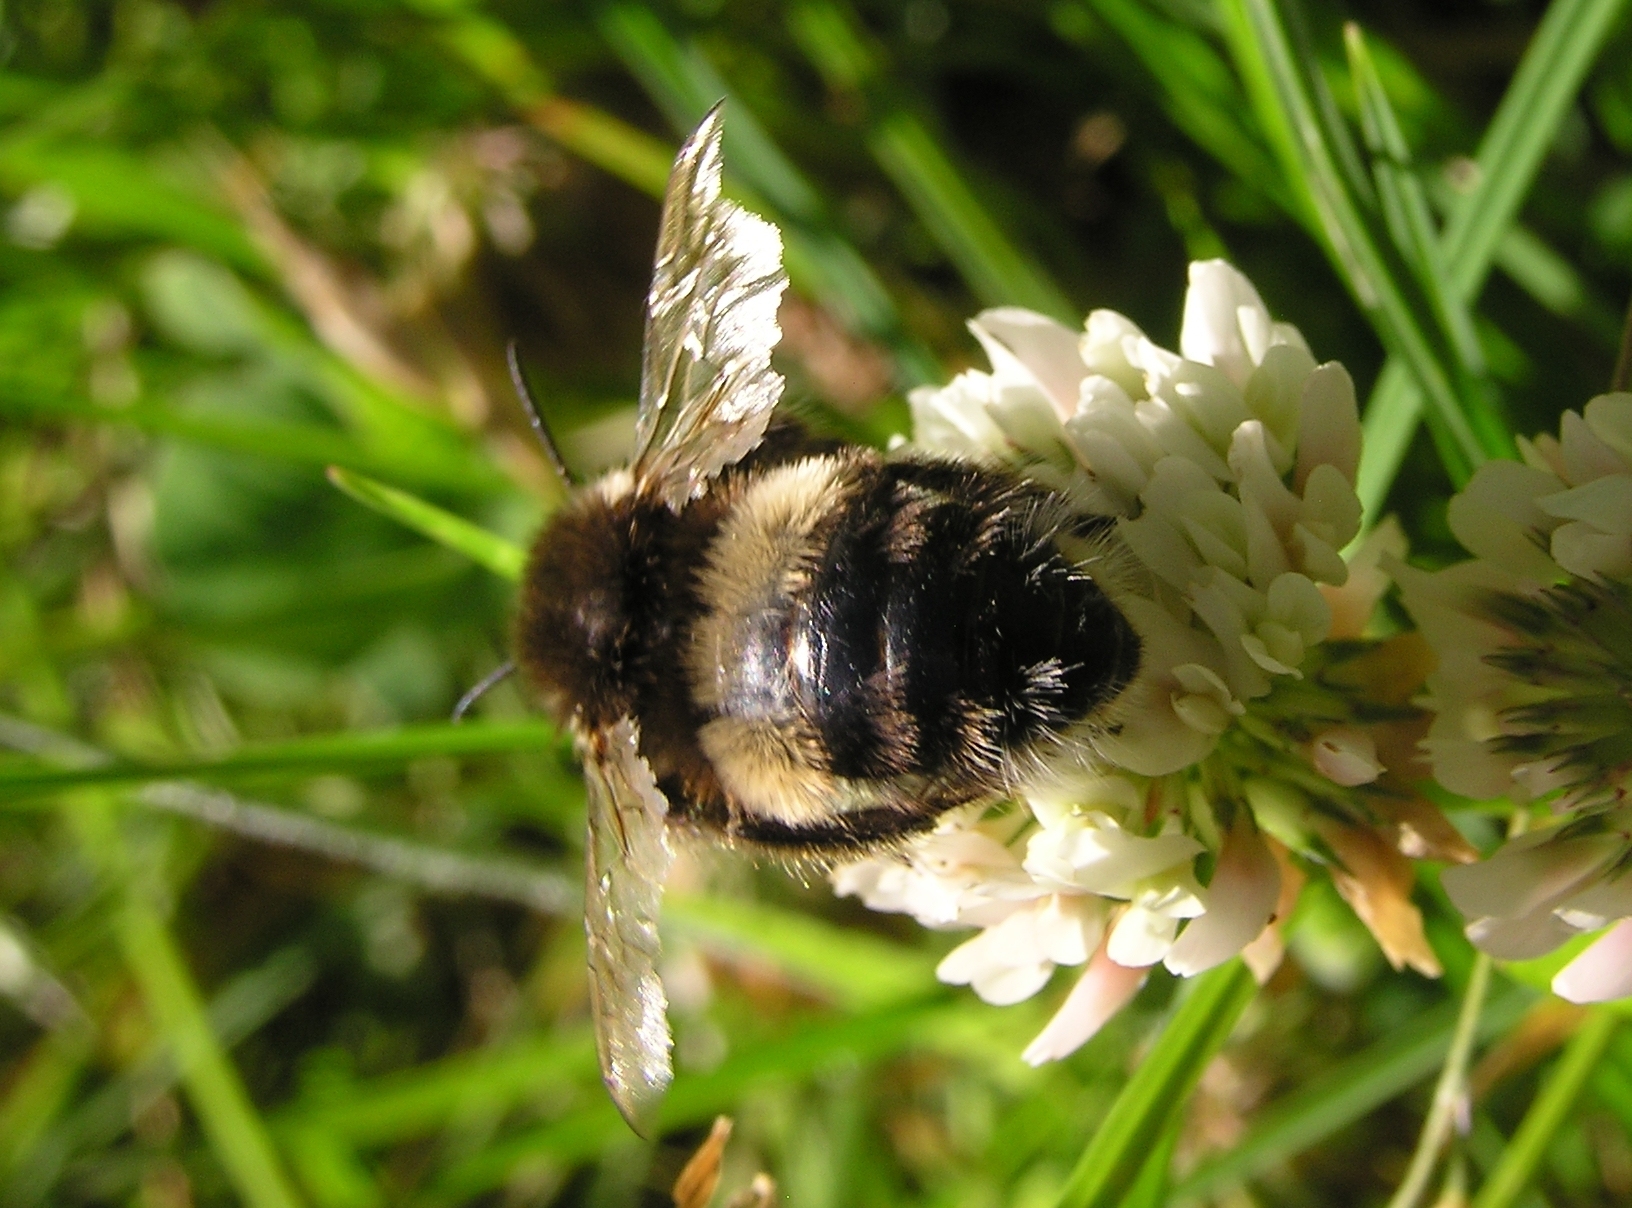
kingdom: Animalia
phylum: Arthropoda
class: Insecta
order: Hymenoptera
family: Apidae
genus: Bombus
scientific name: Bombus terrestris
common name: Buff-tailed bumblebee
